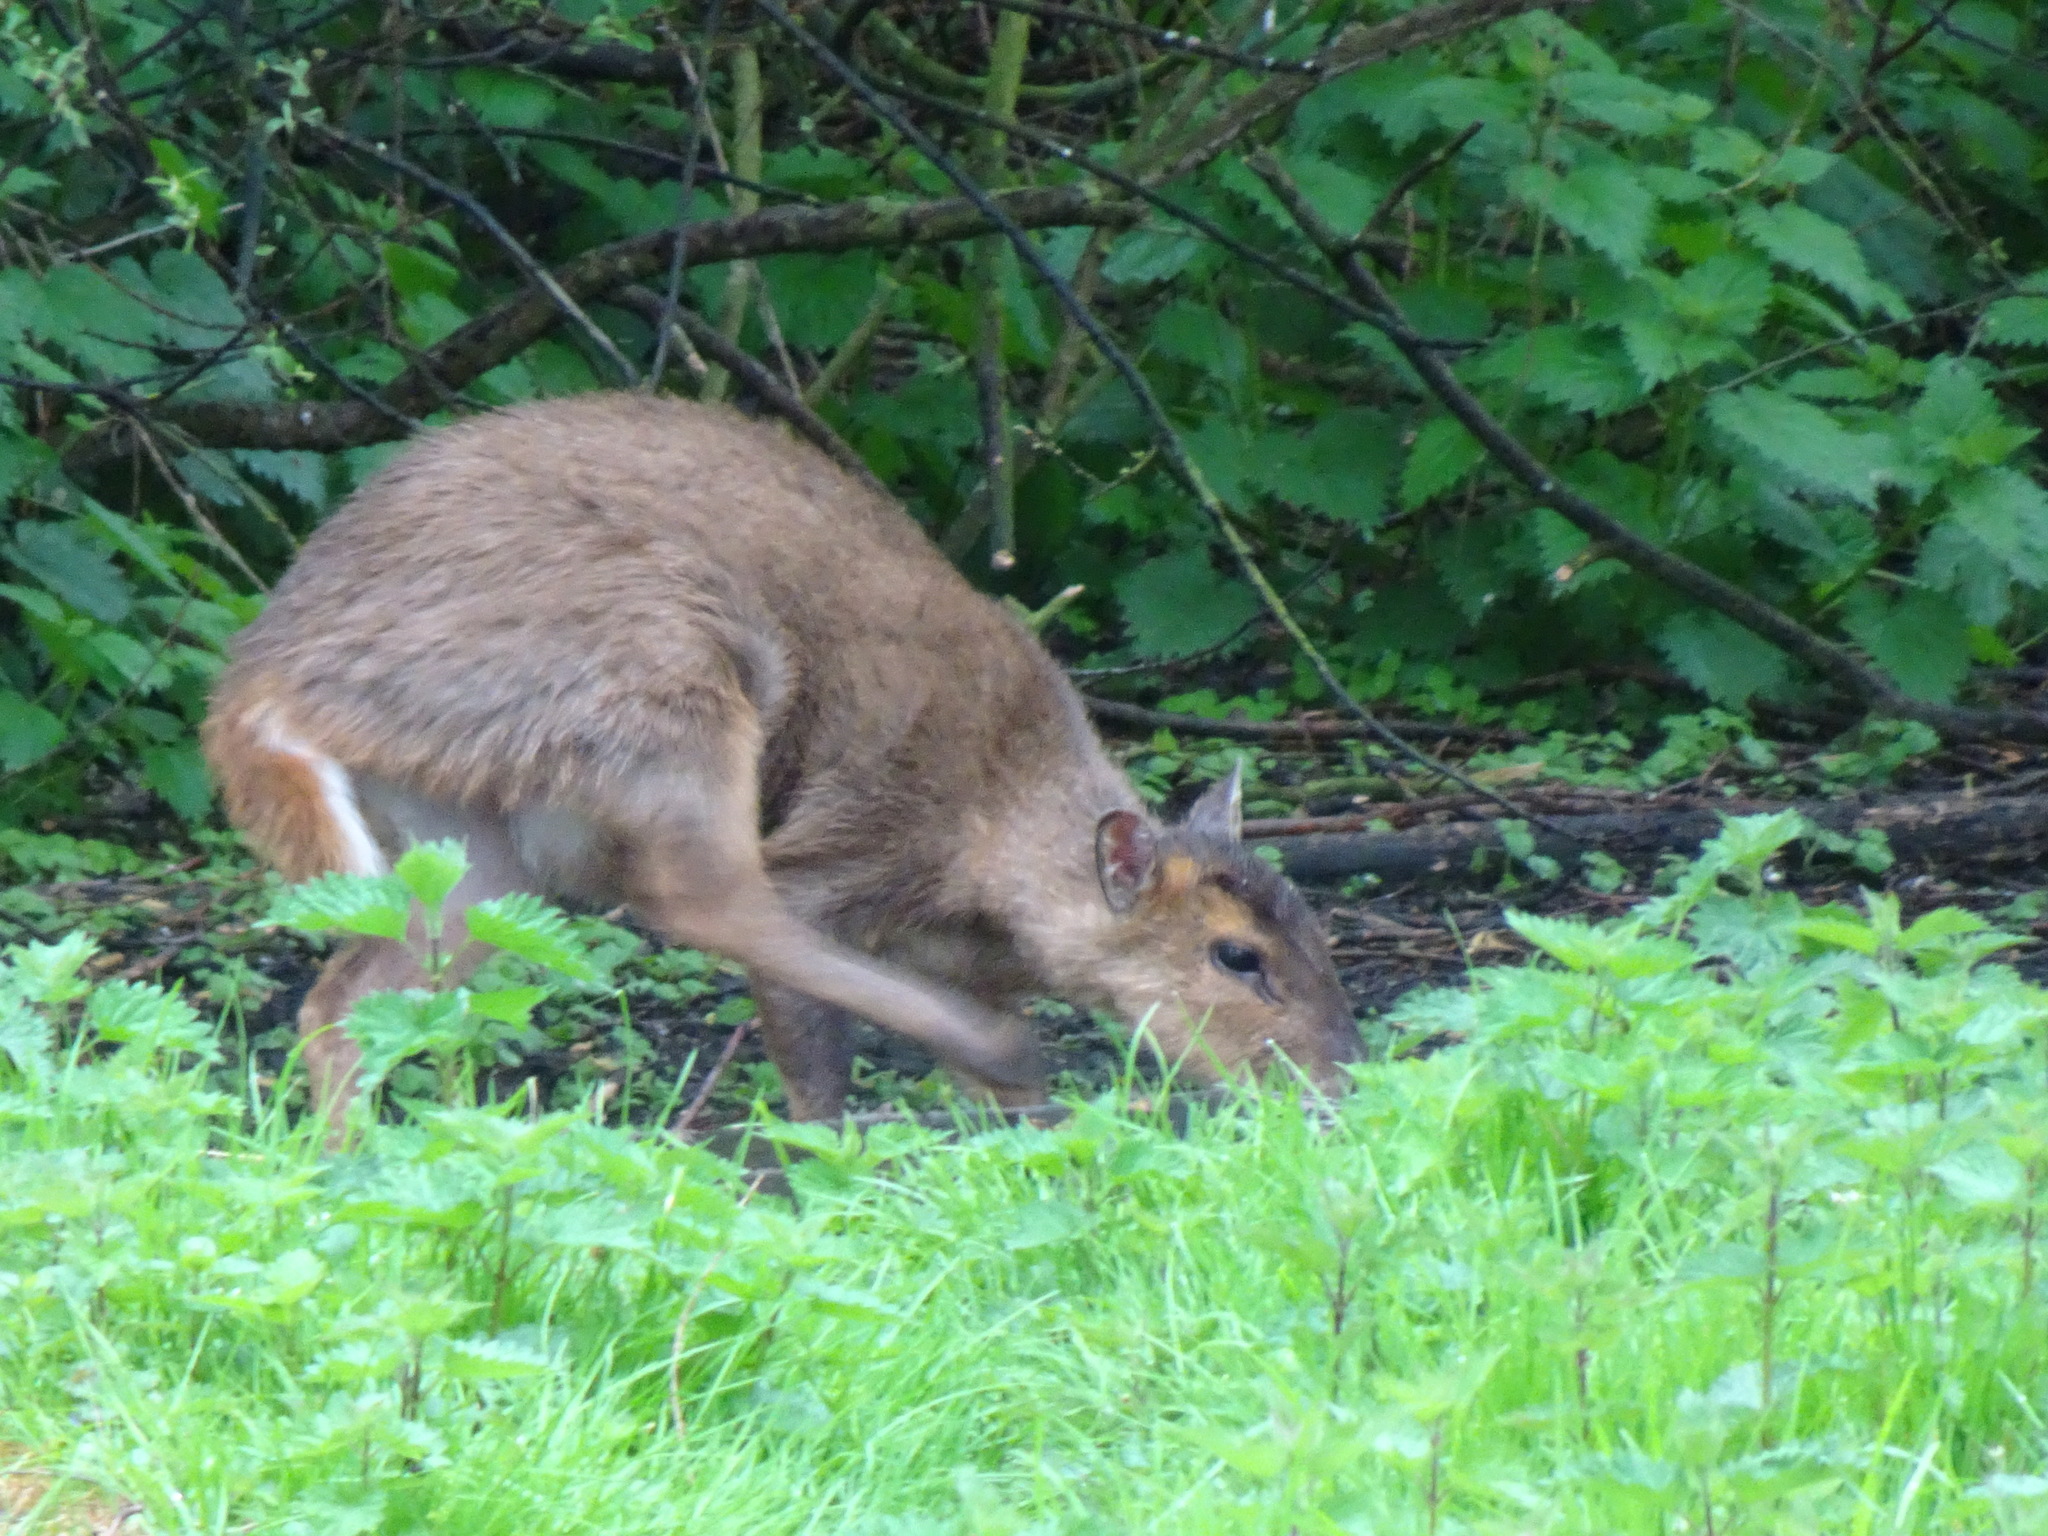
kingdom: Animalia
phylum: Chordata
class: Mammalia
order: Artiodactyla
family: Cervidae
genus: Muntiacus
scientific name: Muntiacus reevesi
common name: Reeves' muntjac
